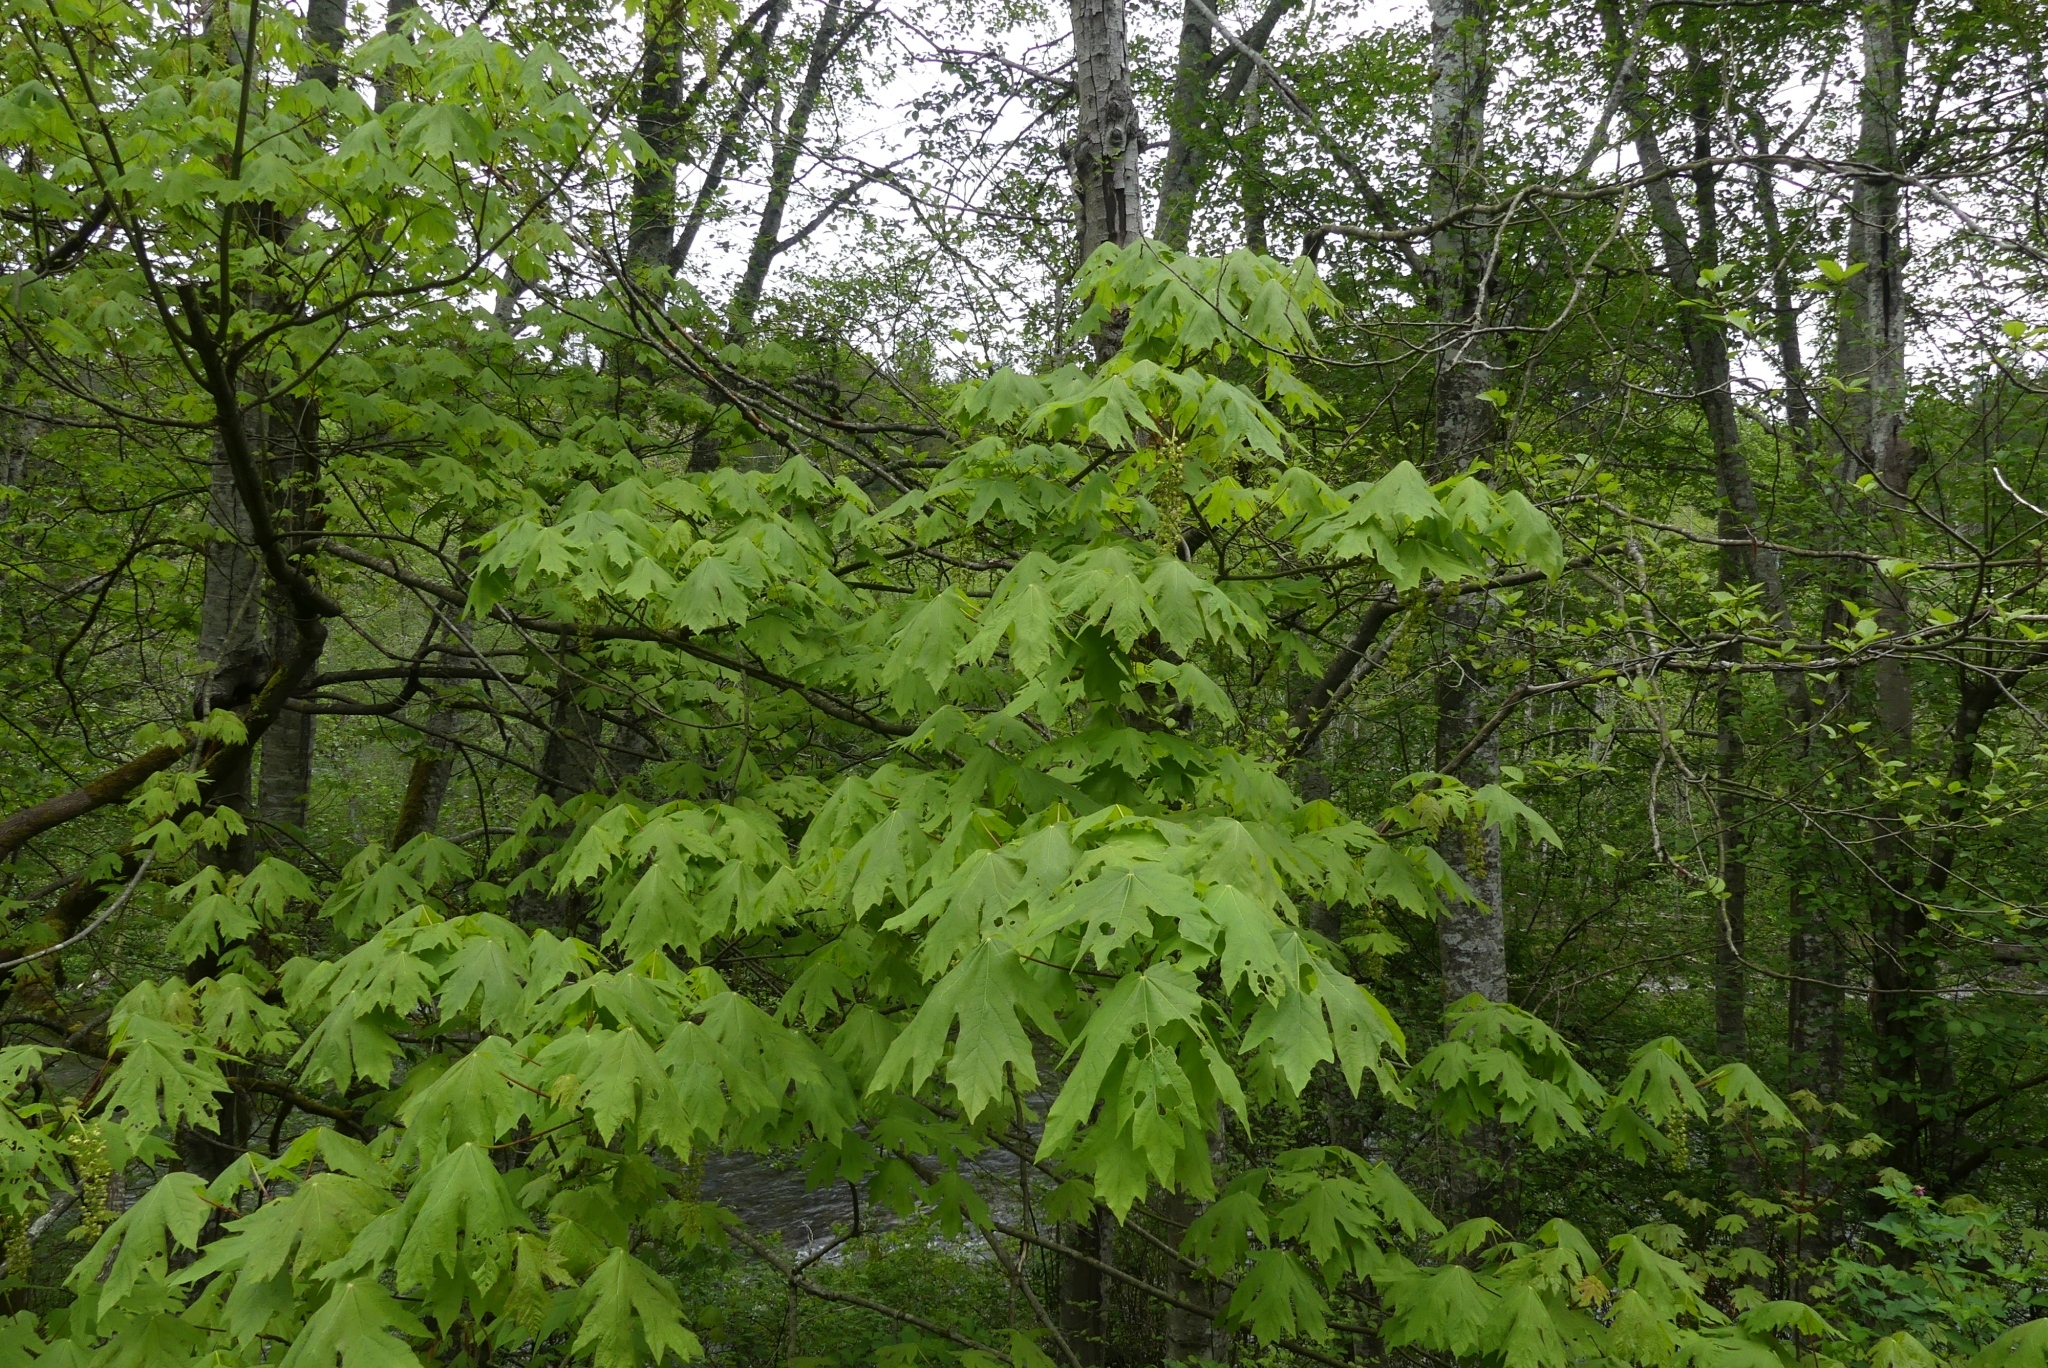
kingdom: Plantae
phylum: Tracheophyta
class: Magnoliopsida
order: Sapindales
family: Sapindaceae
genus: Acer
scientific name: Acer macrophyllum
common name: Oregon maple
